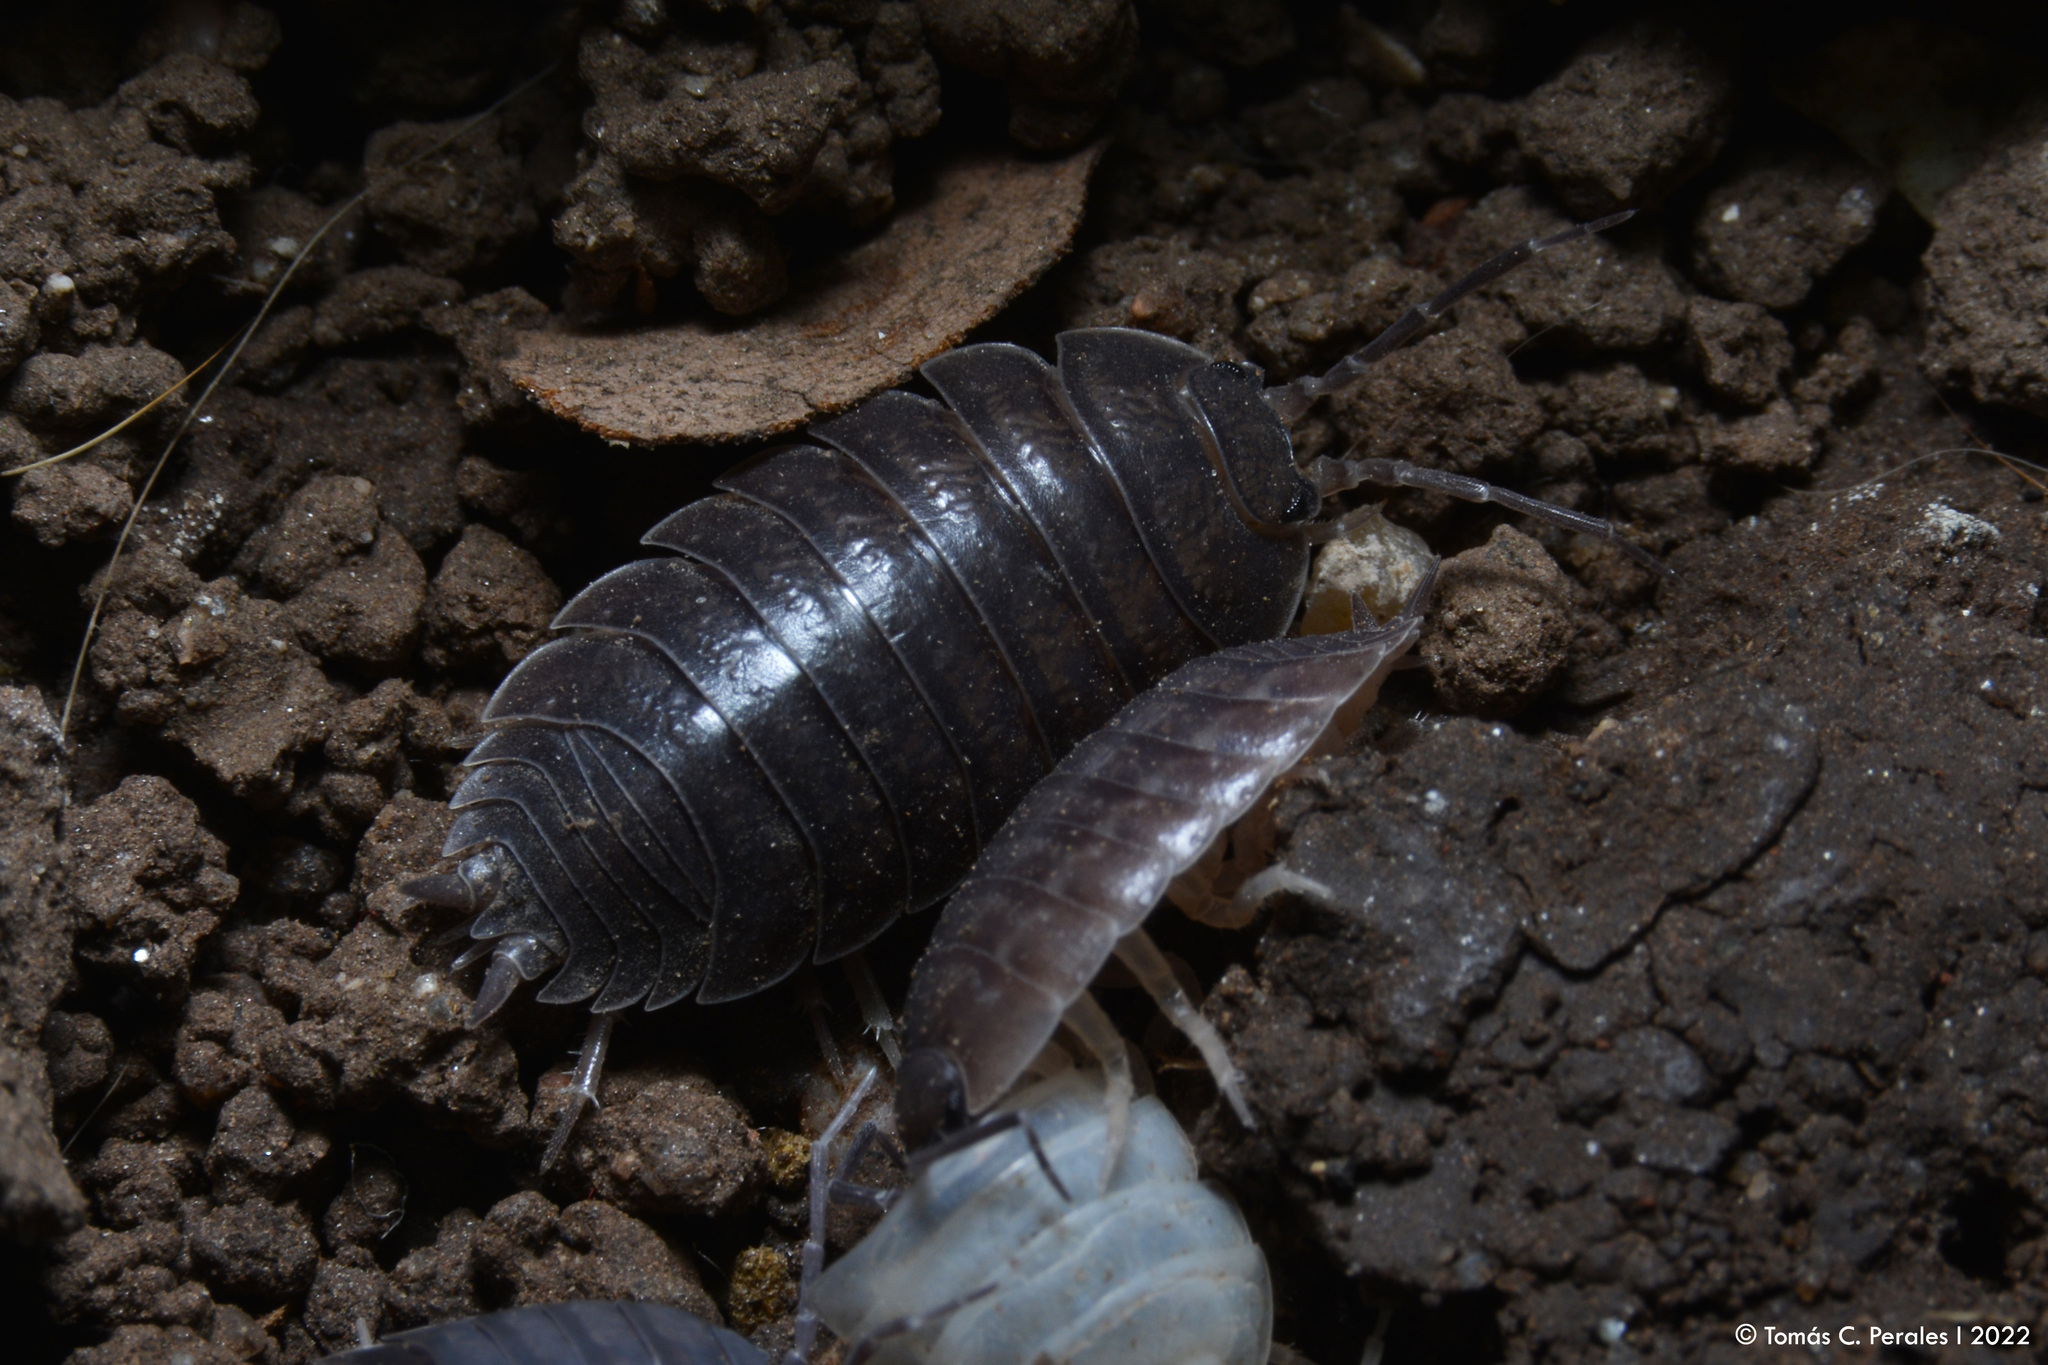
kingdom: Animalia
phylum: Arthropoda
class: Malacostraca
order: Isopoda
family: Porcellionidae
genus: Porcellio
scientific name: Porcellio laevis
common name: Swift woodlouse
